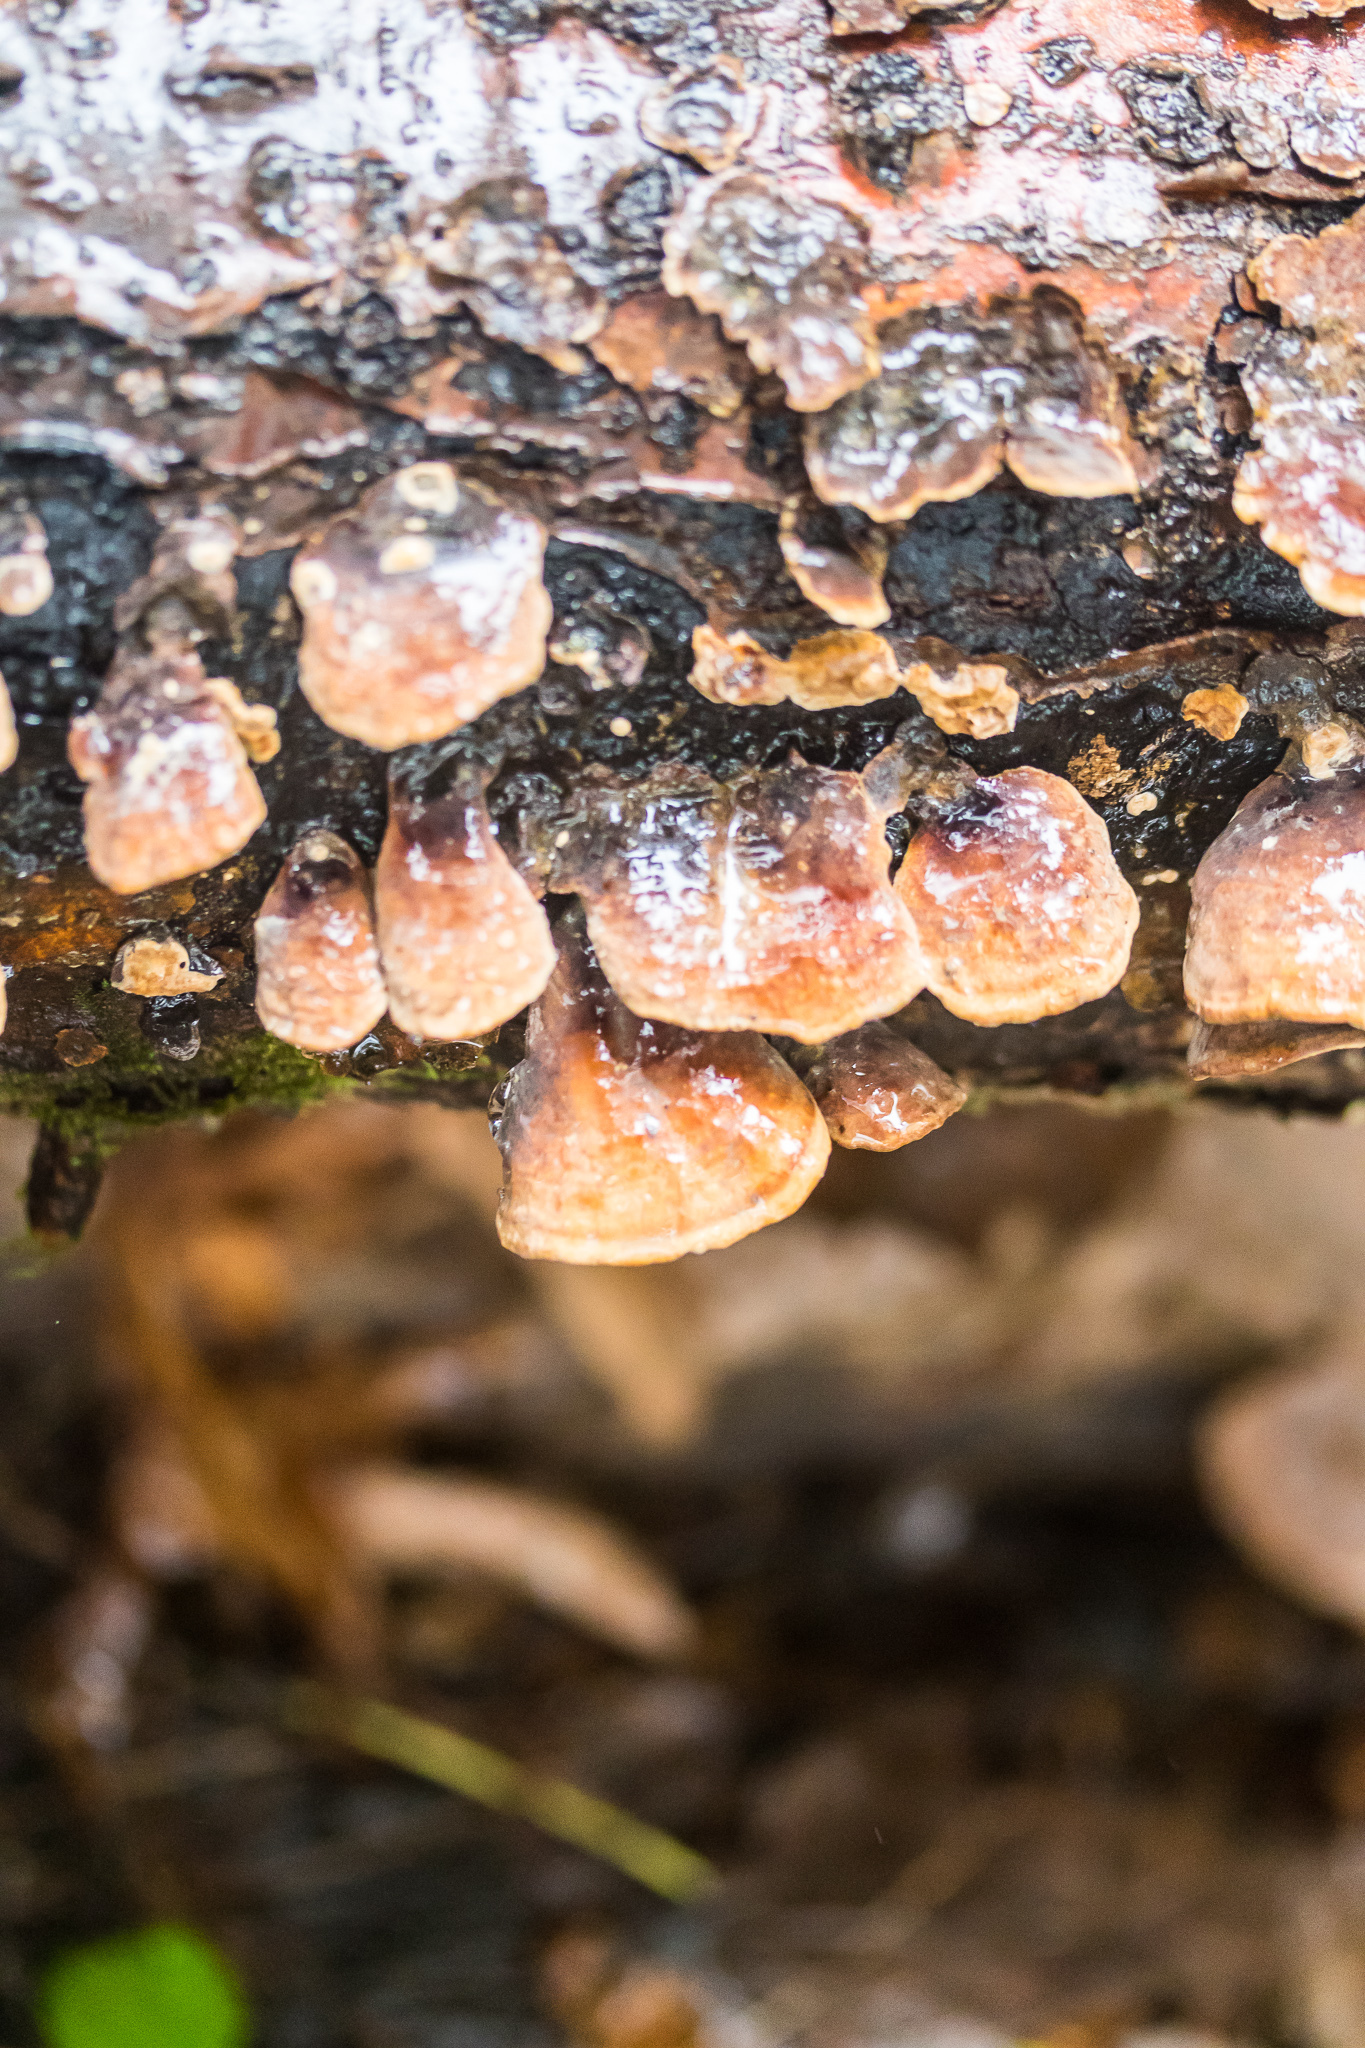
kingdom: Fungi
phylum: Basidiomycota
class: Agaricomycetes
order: Russulales
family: Stereaceae
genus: Stereum
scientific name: Stereum ostrea
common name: False turkeytail
